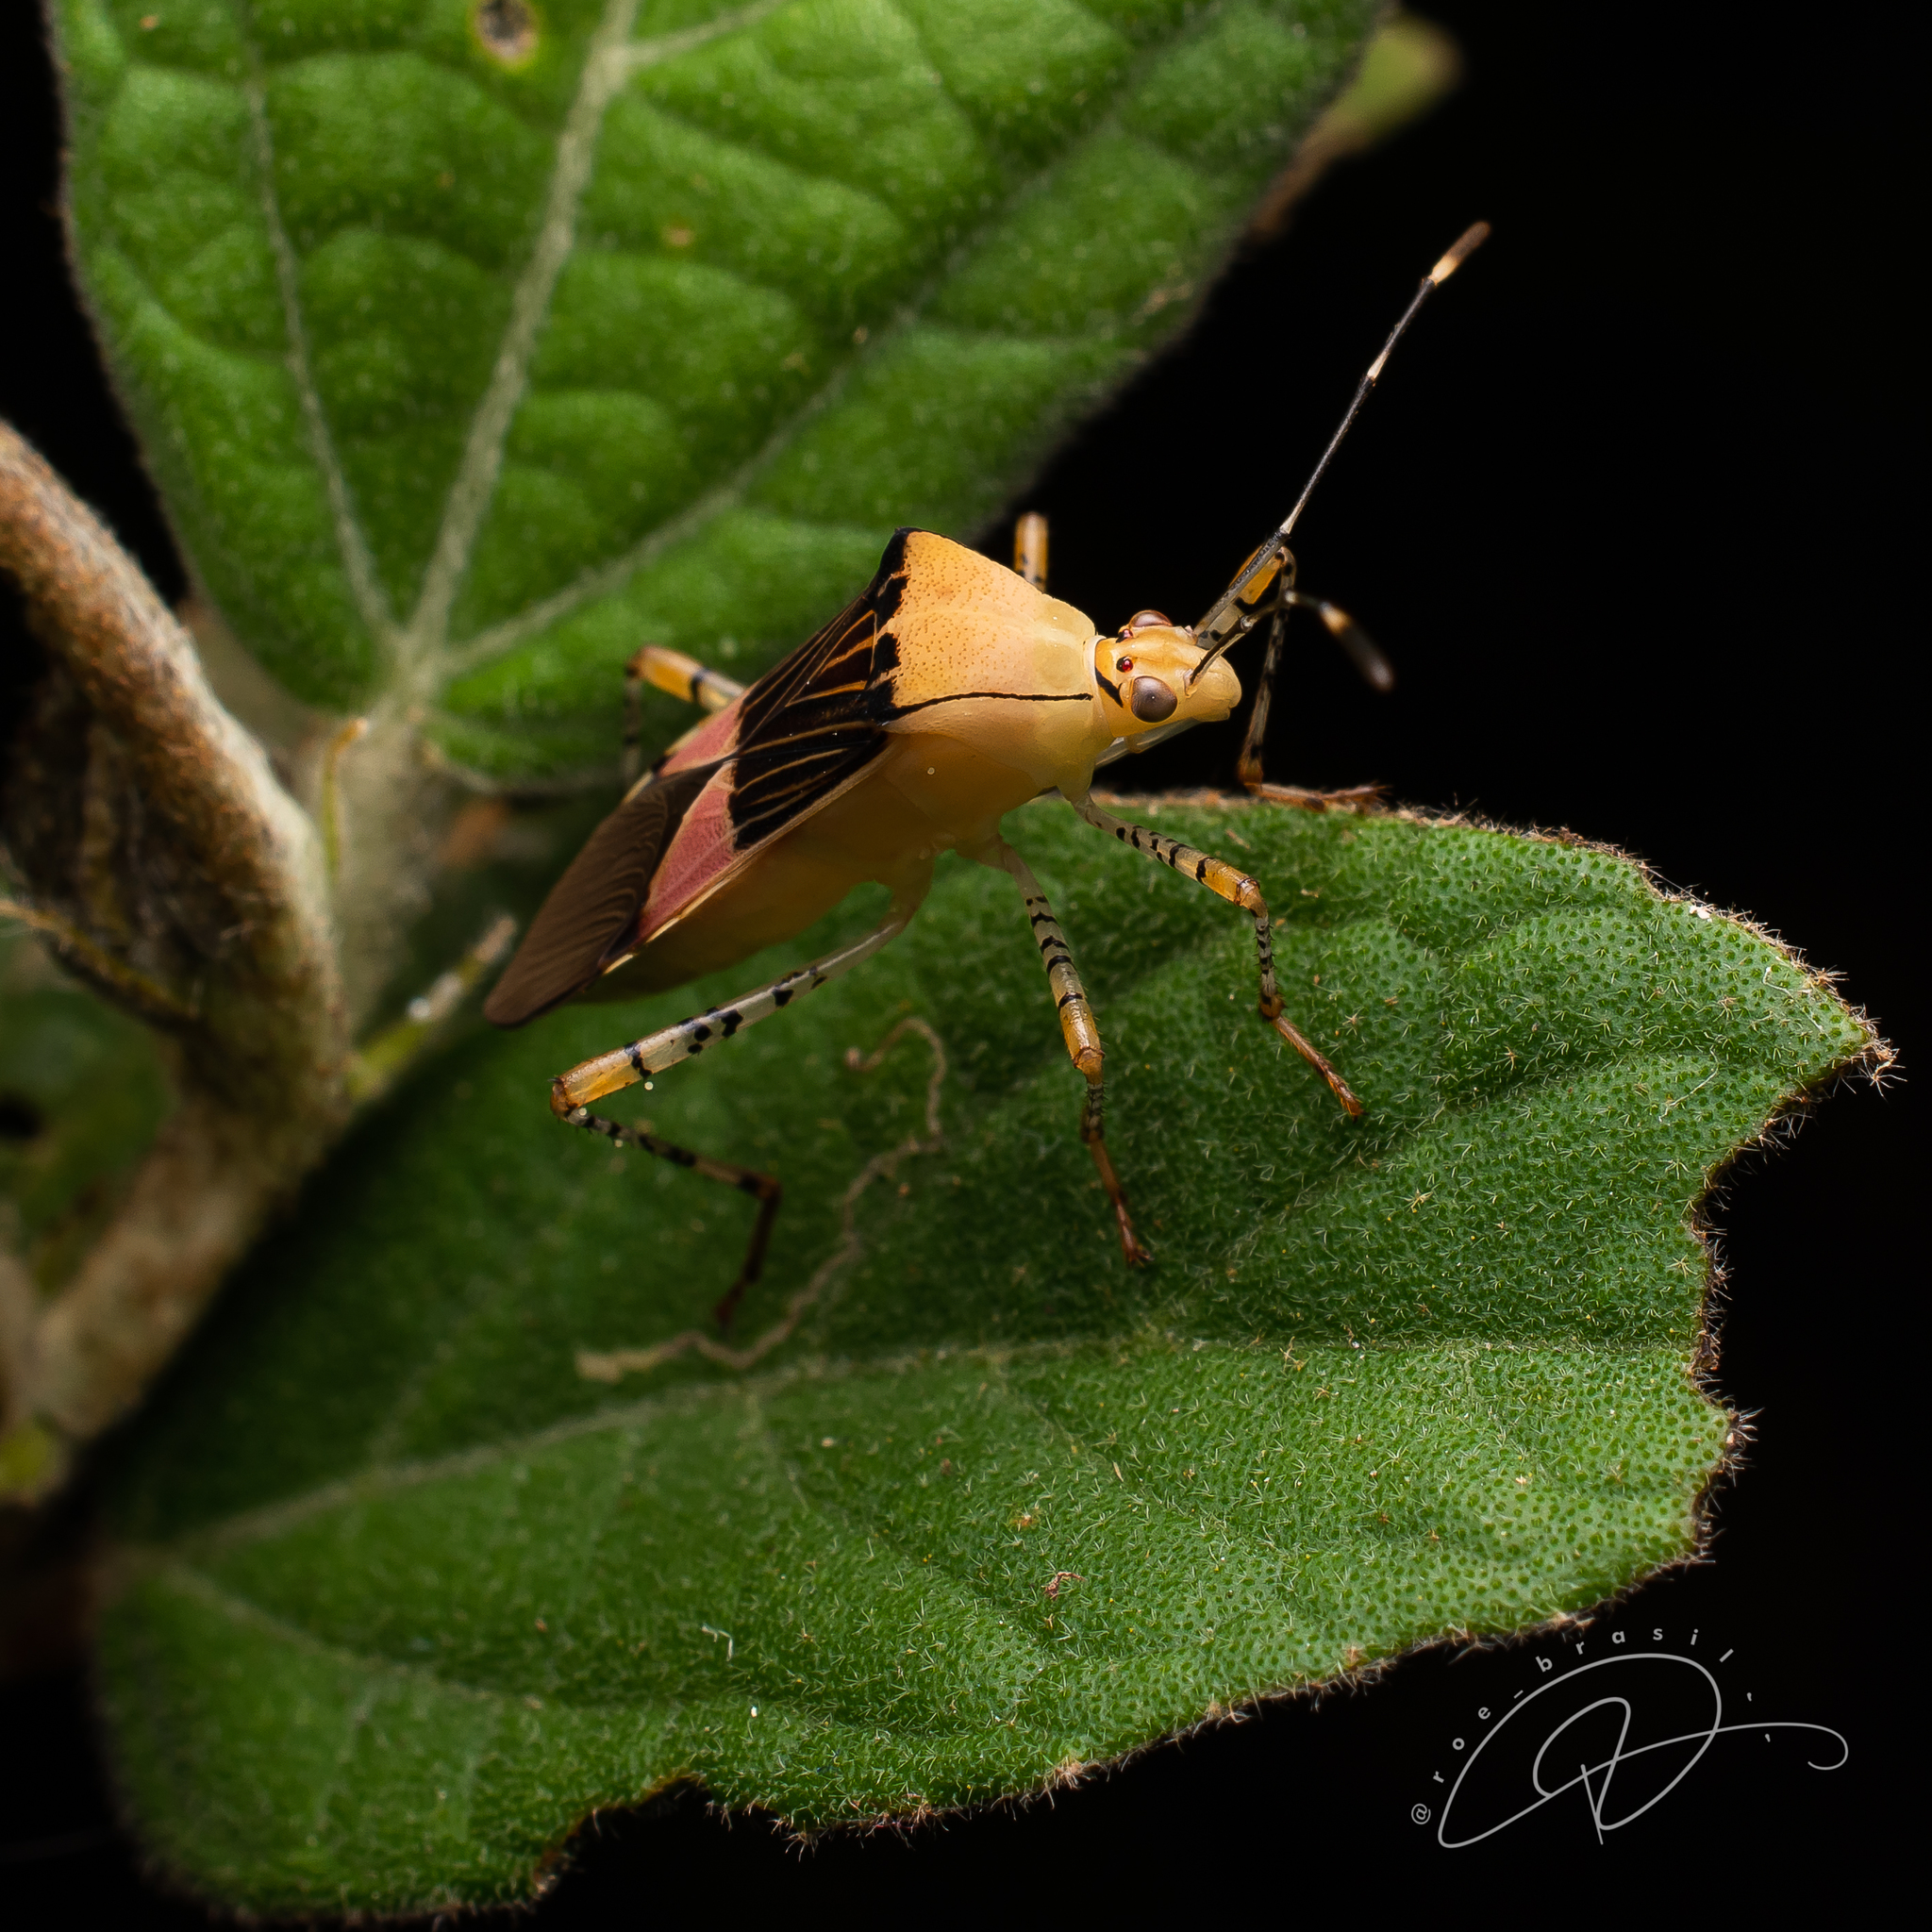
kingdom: Animalia
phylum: Arthropoda
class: Insecta
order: Hemiptera
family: Coreidae
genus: Hypselonotus
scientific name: Hypselonotus fulvus
